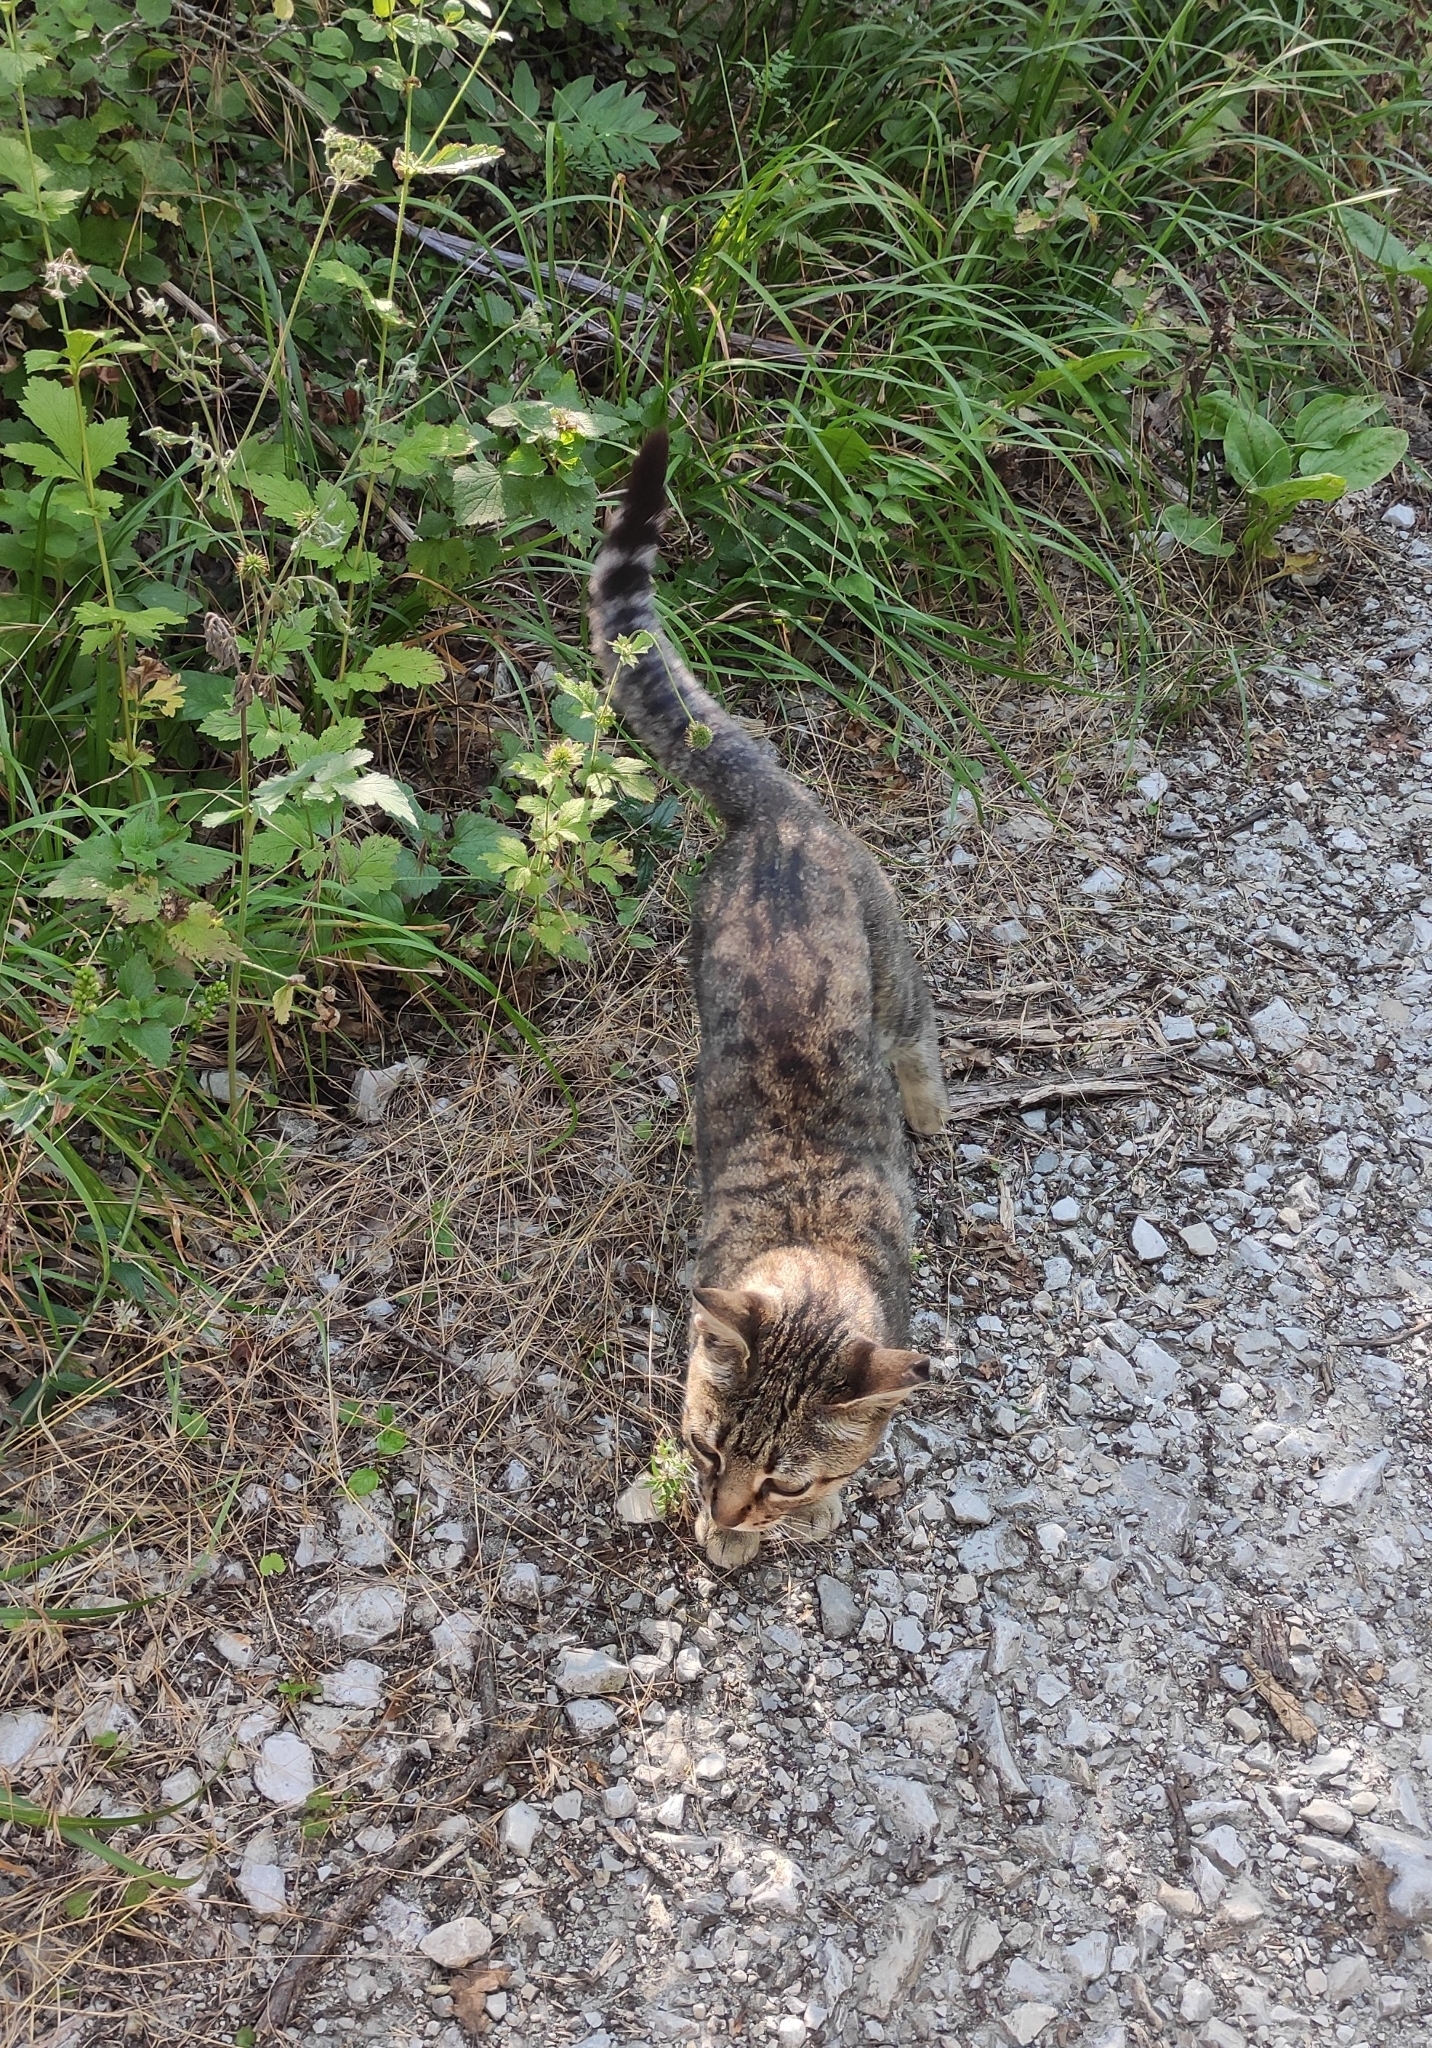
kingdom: Animalia
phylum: Chordata
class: Mammalia
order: Carnivora
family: Felidae
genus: Felis
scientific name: Felis catus
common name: Domestic cat
